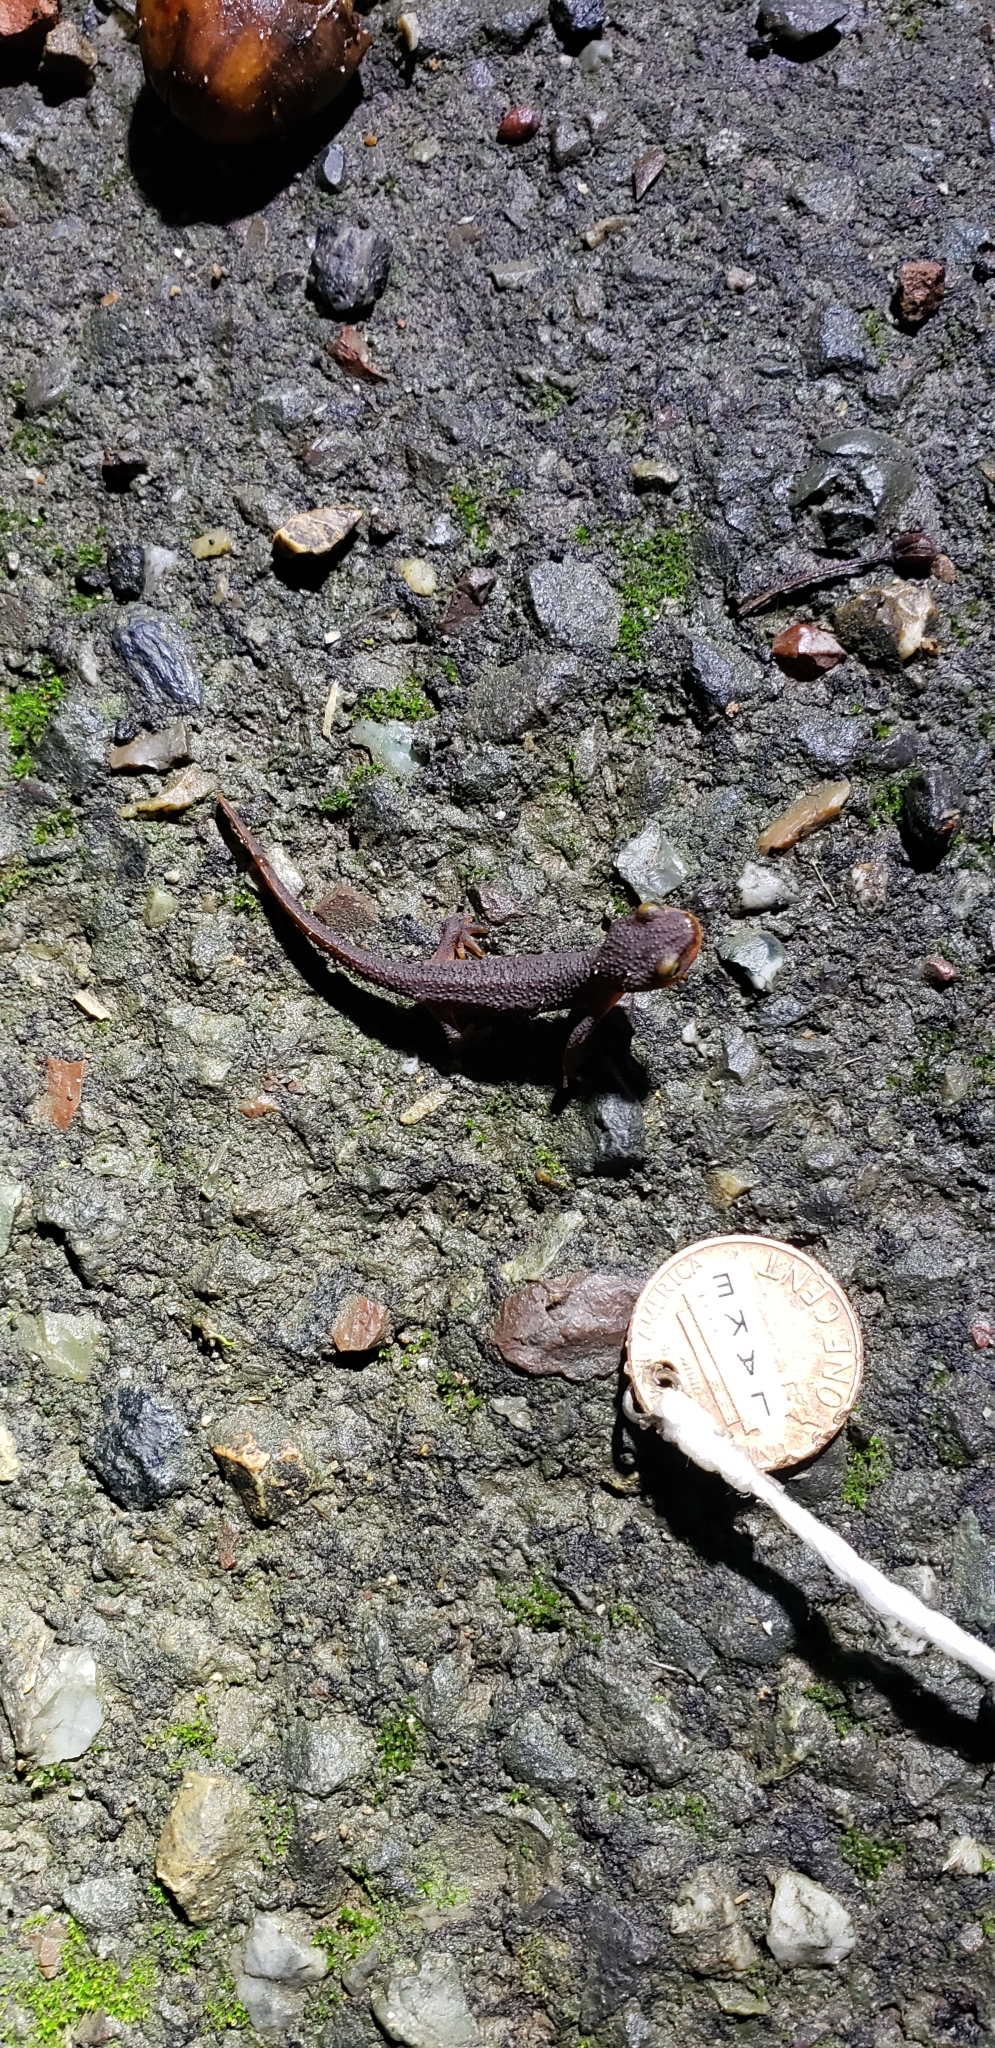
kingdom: Animalia
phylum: Chordata
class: Amphibia
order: Caudata
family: Salamandridae
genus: Taricha
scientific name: Taricha torosa
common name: California newt
